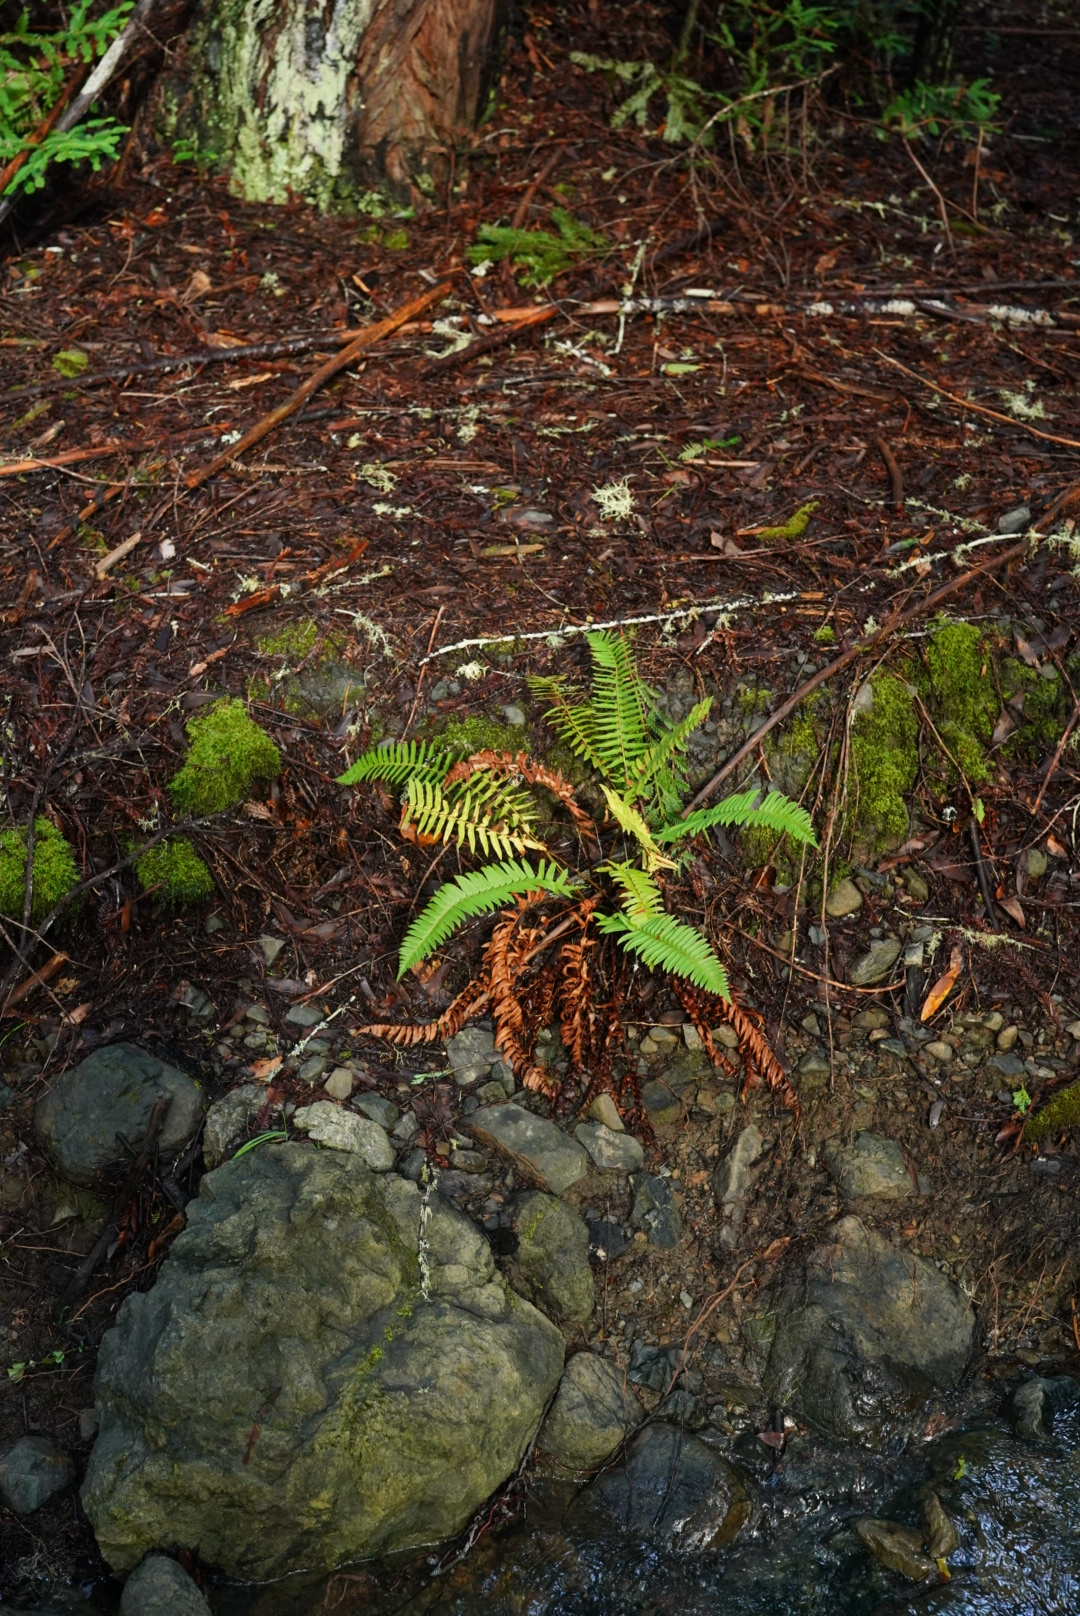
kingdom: Plantae
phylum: Tracheophyta
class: Polypodiopsida
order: Polypodiales
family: Dryopteridaceae
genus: Polystichum
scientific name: Polystichum munitum
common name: Western sword-fern
